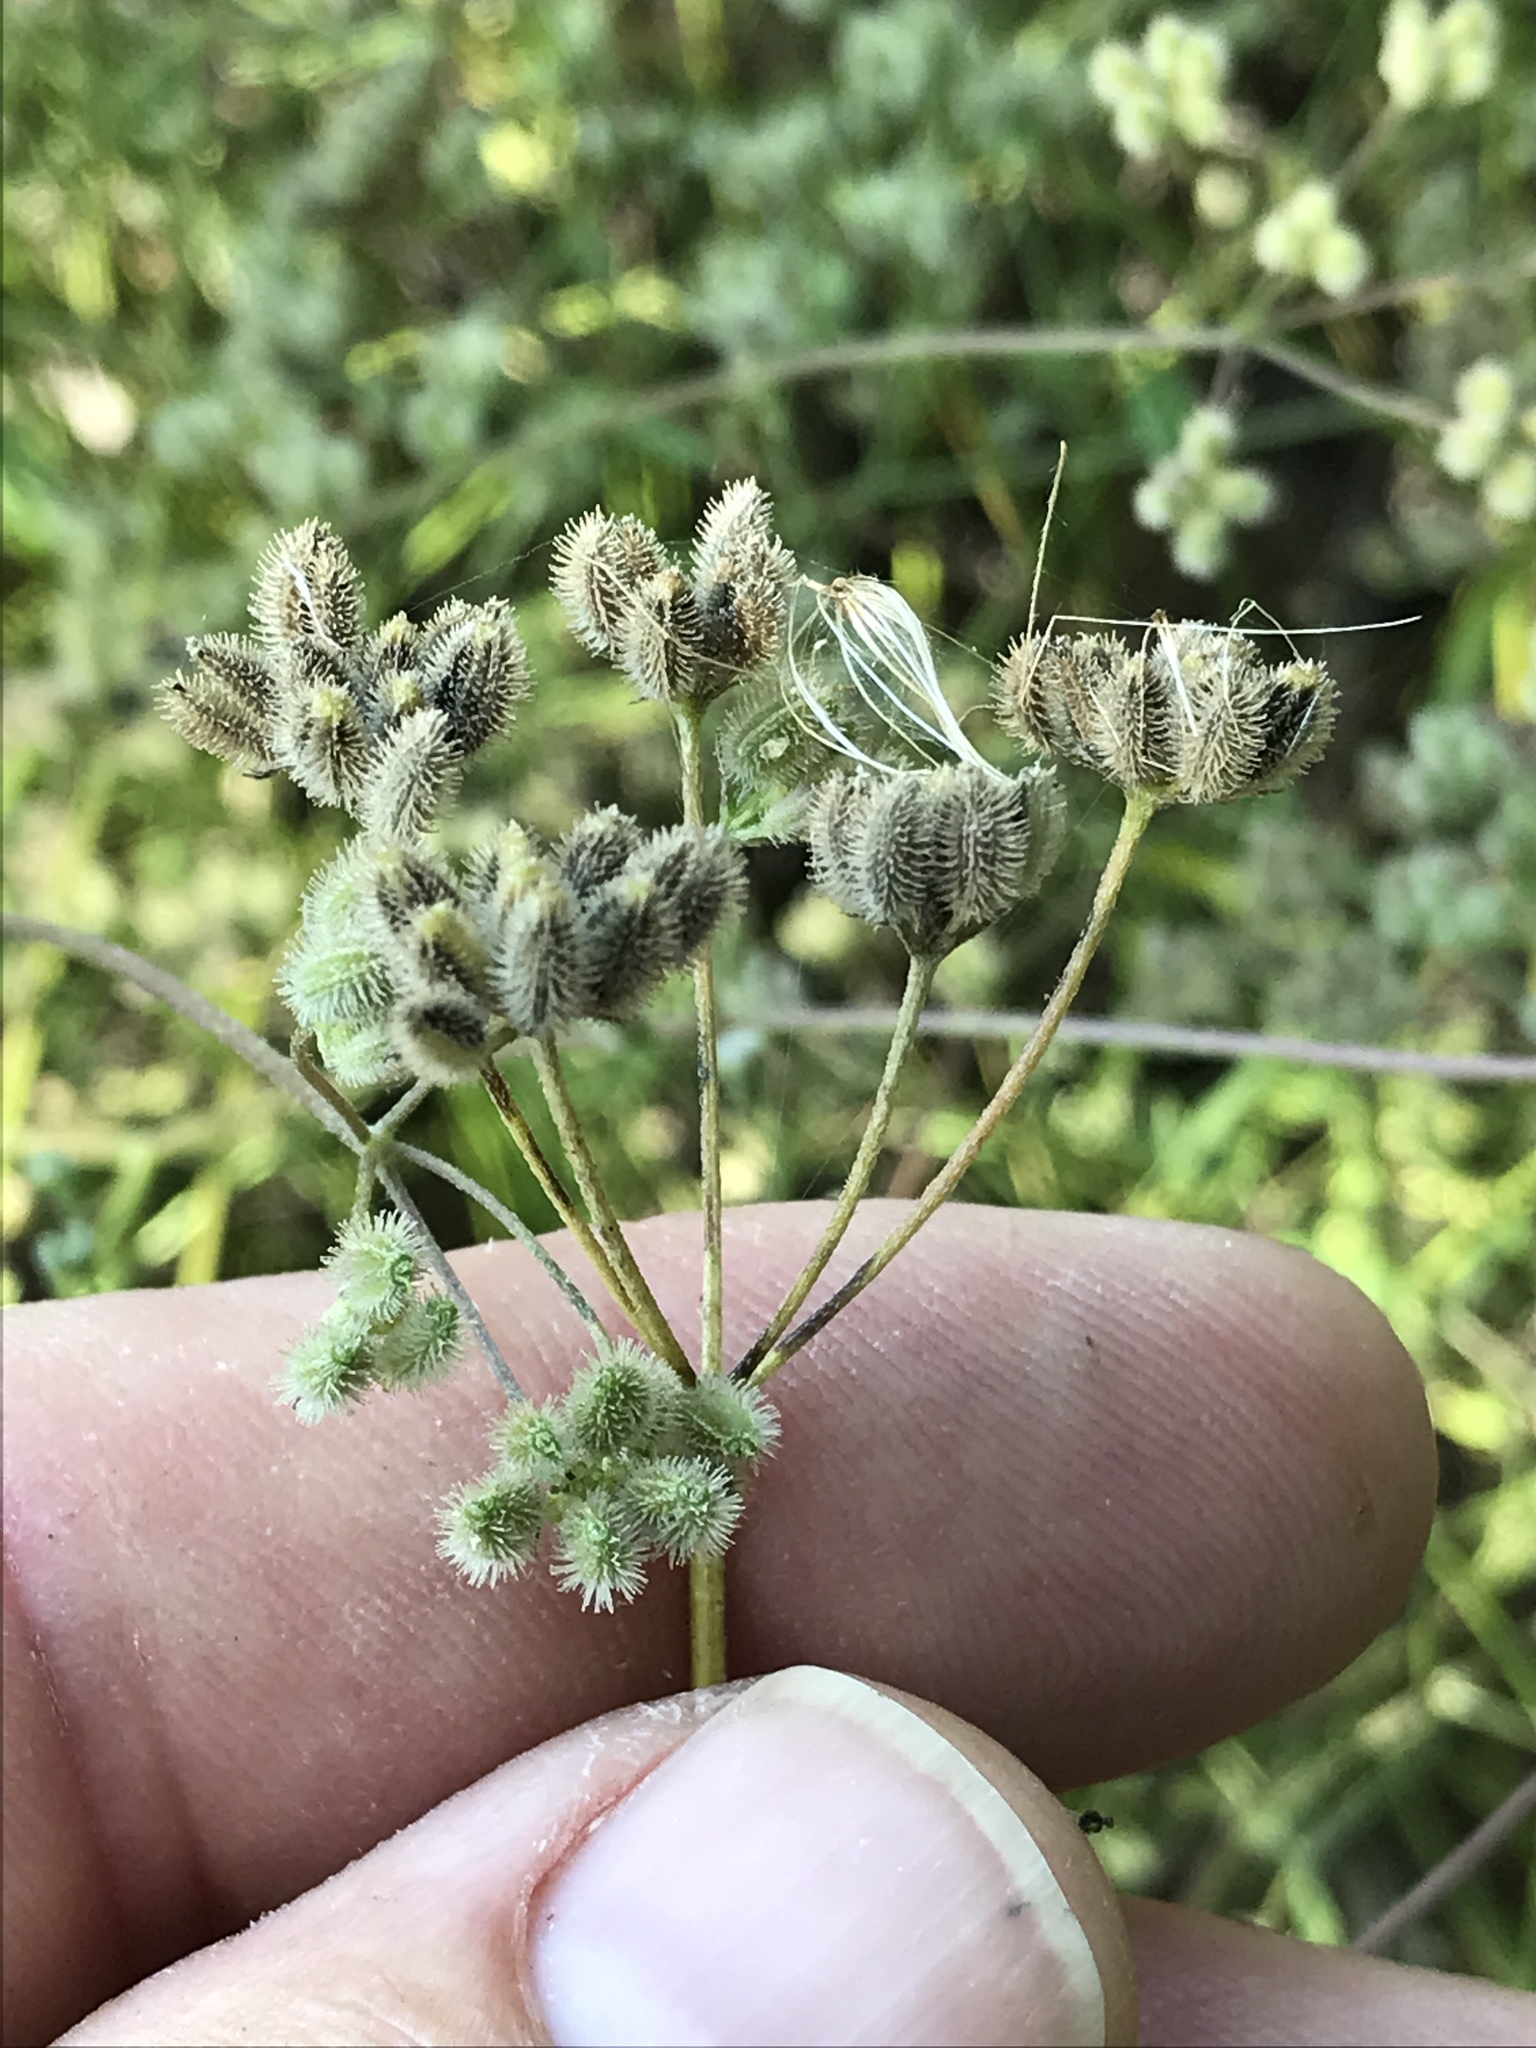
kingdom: Plantae
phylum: Tracheophyta
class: Magnoliopsida
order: Apiales
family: Apiaceae
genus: Torilis
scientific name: Torilis arvensis
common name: Spreading hedge-parsley
